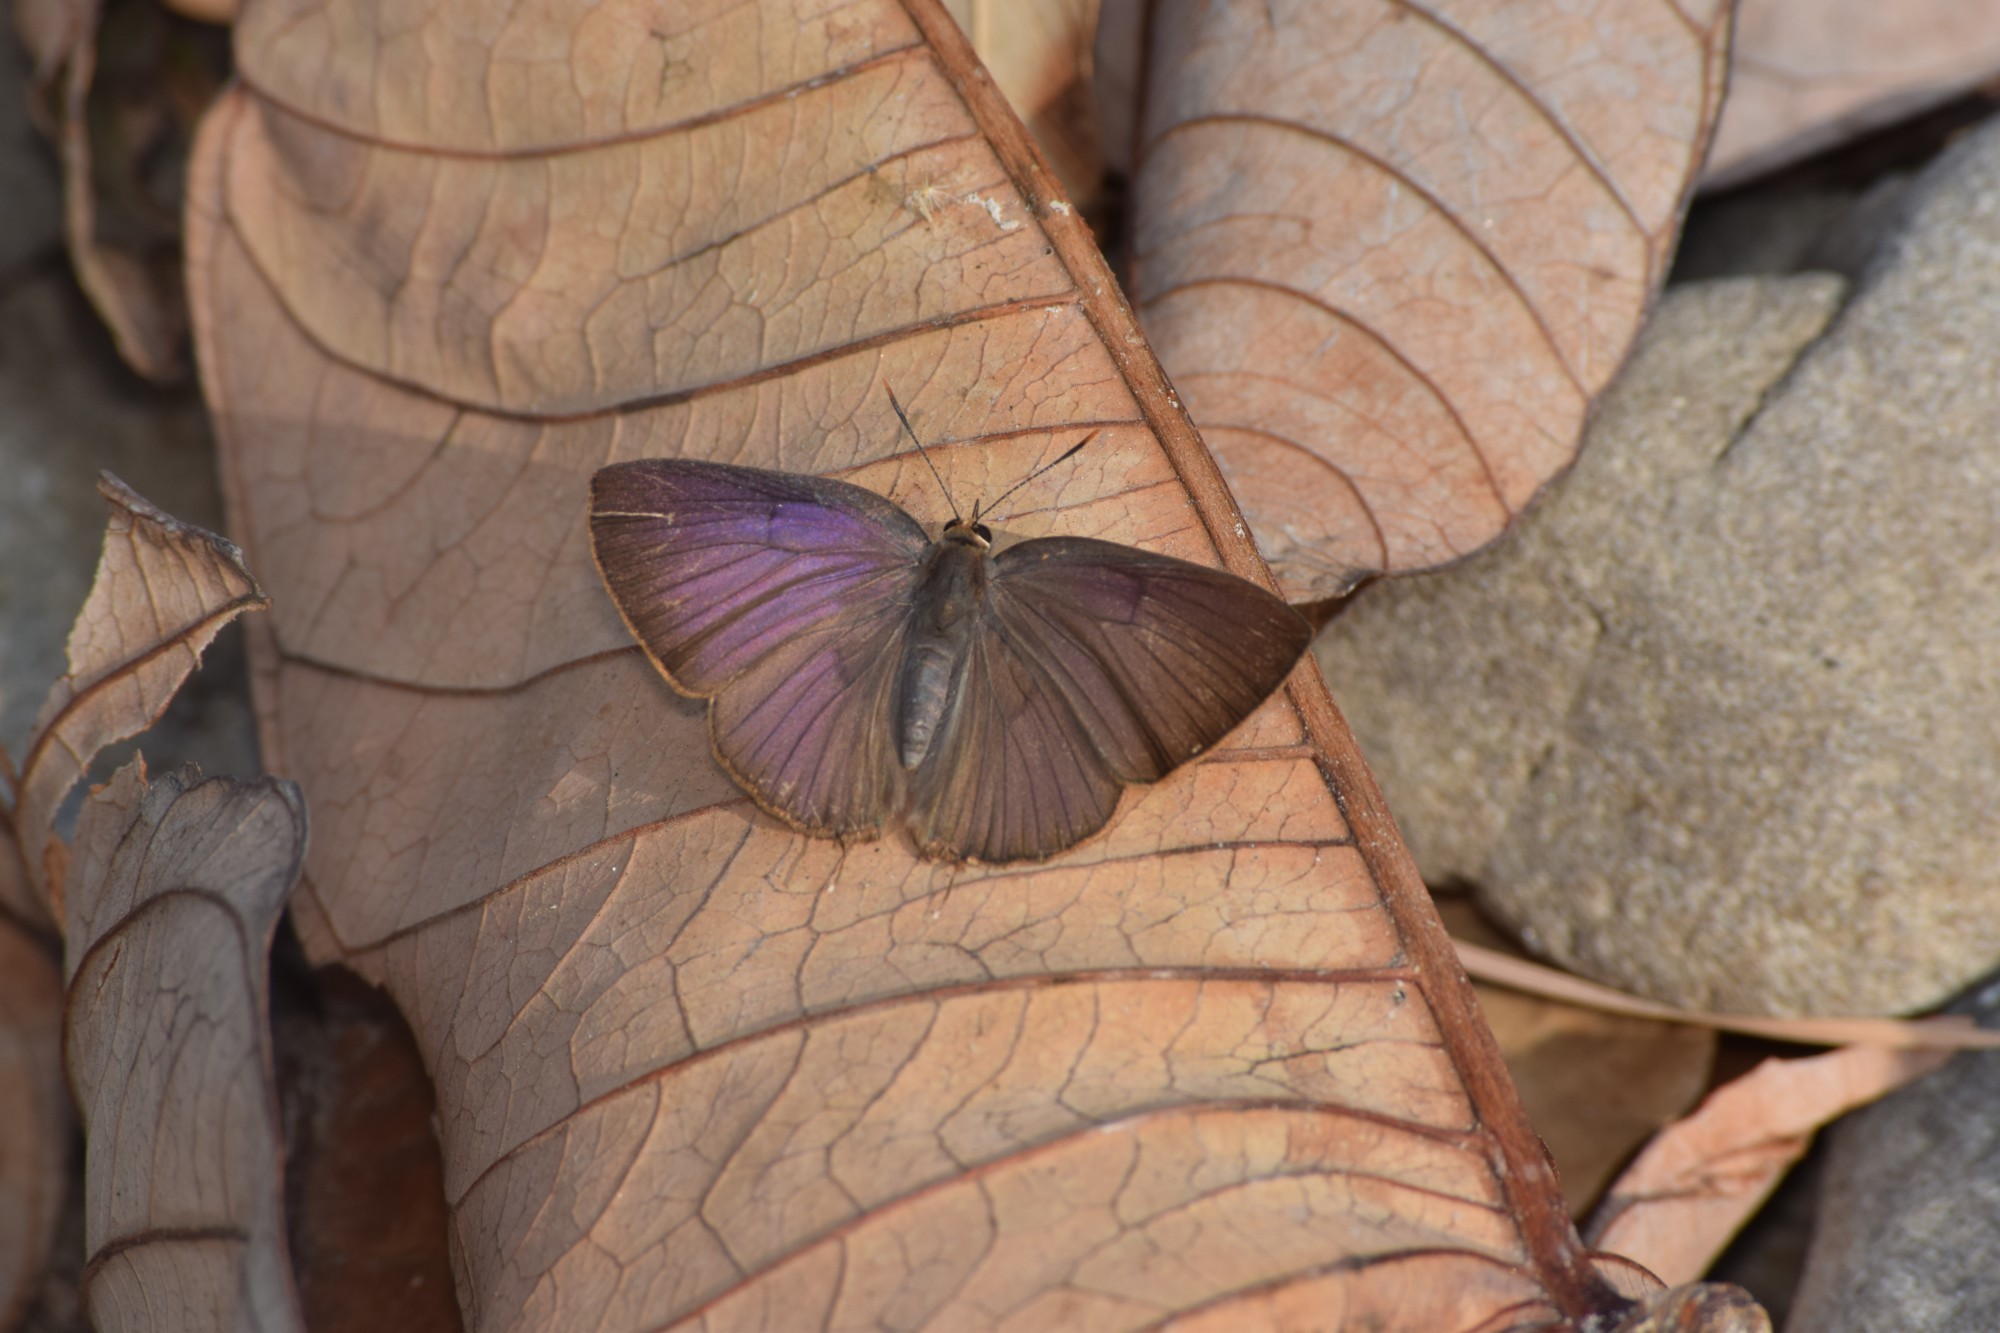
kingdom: Animalia
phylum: Arthropoda
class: Insecta
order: Lepidoptera
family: Lycaenidae
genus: Rapala
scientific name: Rapala pheretima
